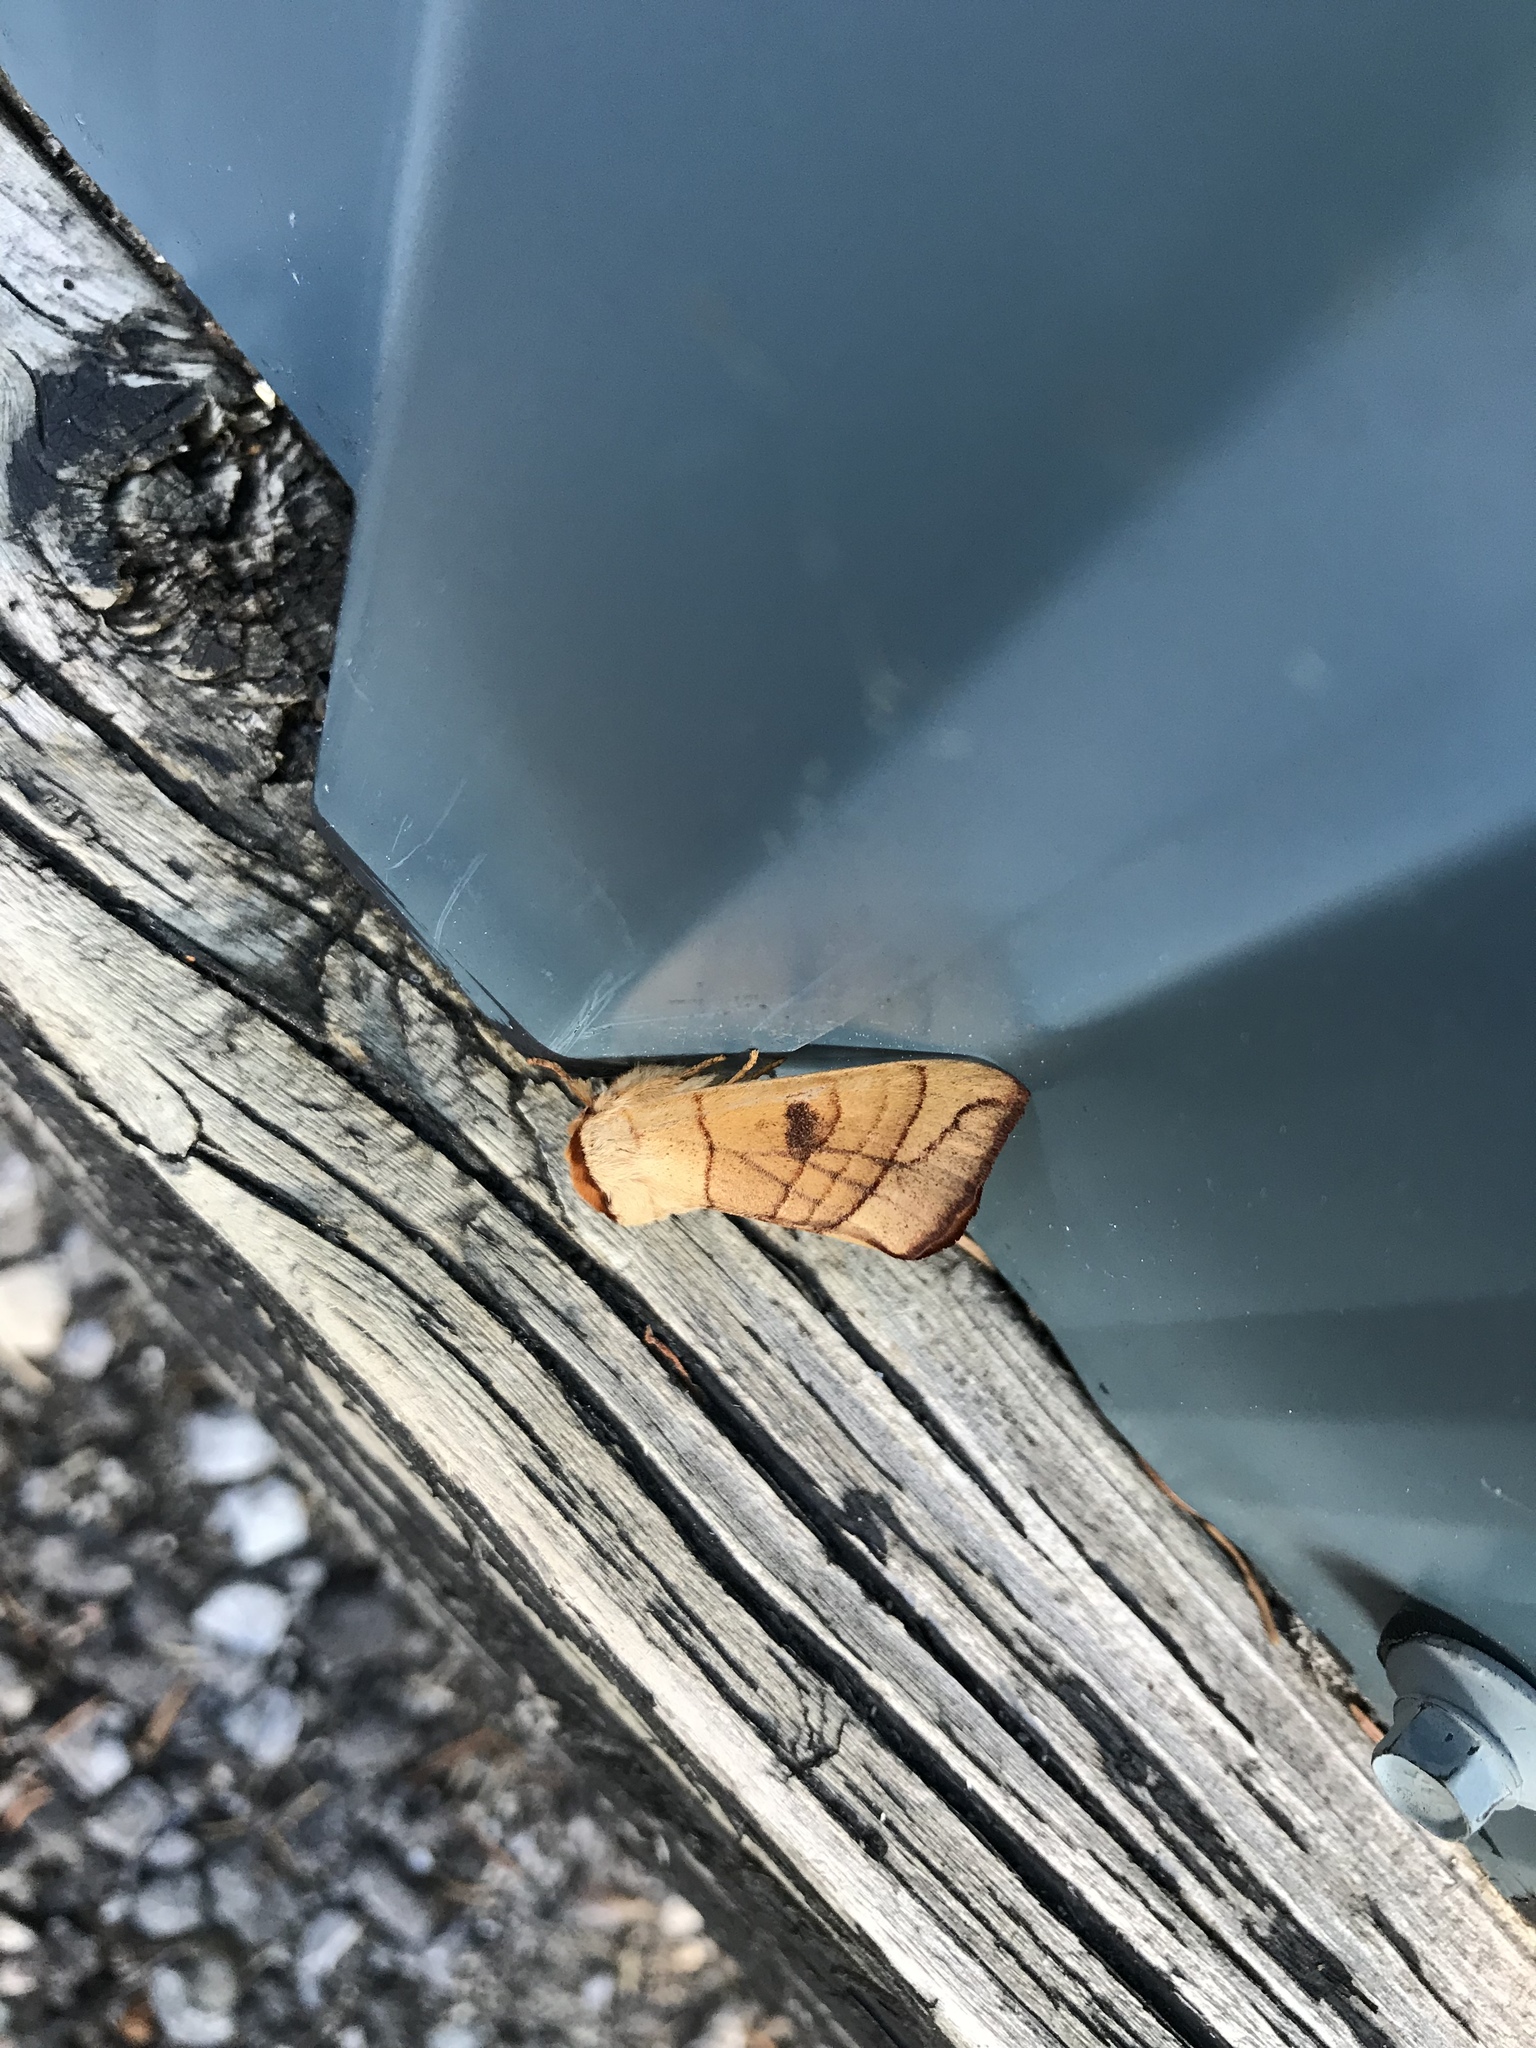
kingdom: Animalia
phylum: Arthropoda
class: Insecta
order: Lepidoptera
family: Notodontidae
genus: Datana
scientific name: Datana perspicua
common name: Spotted datana
